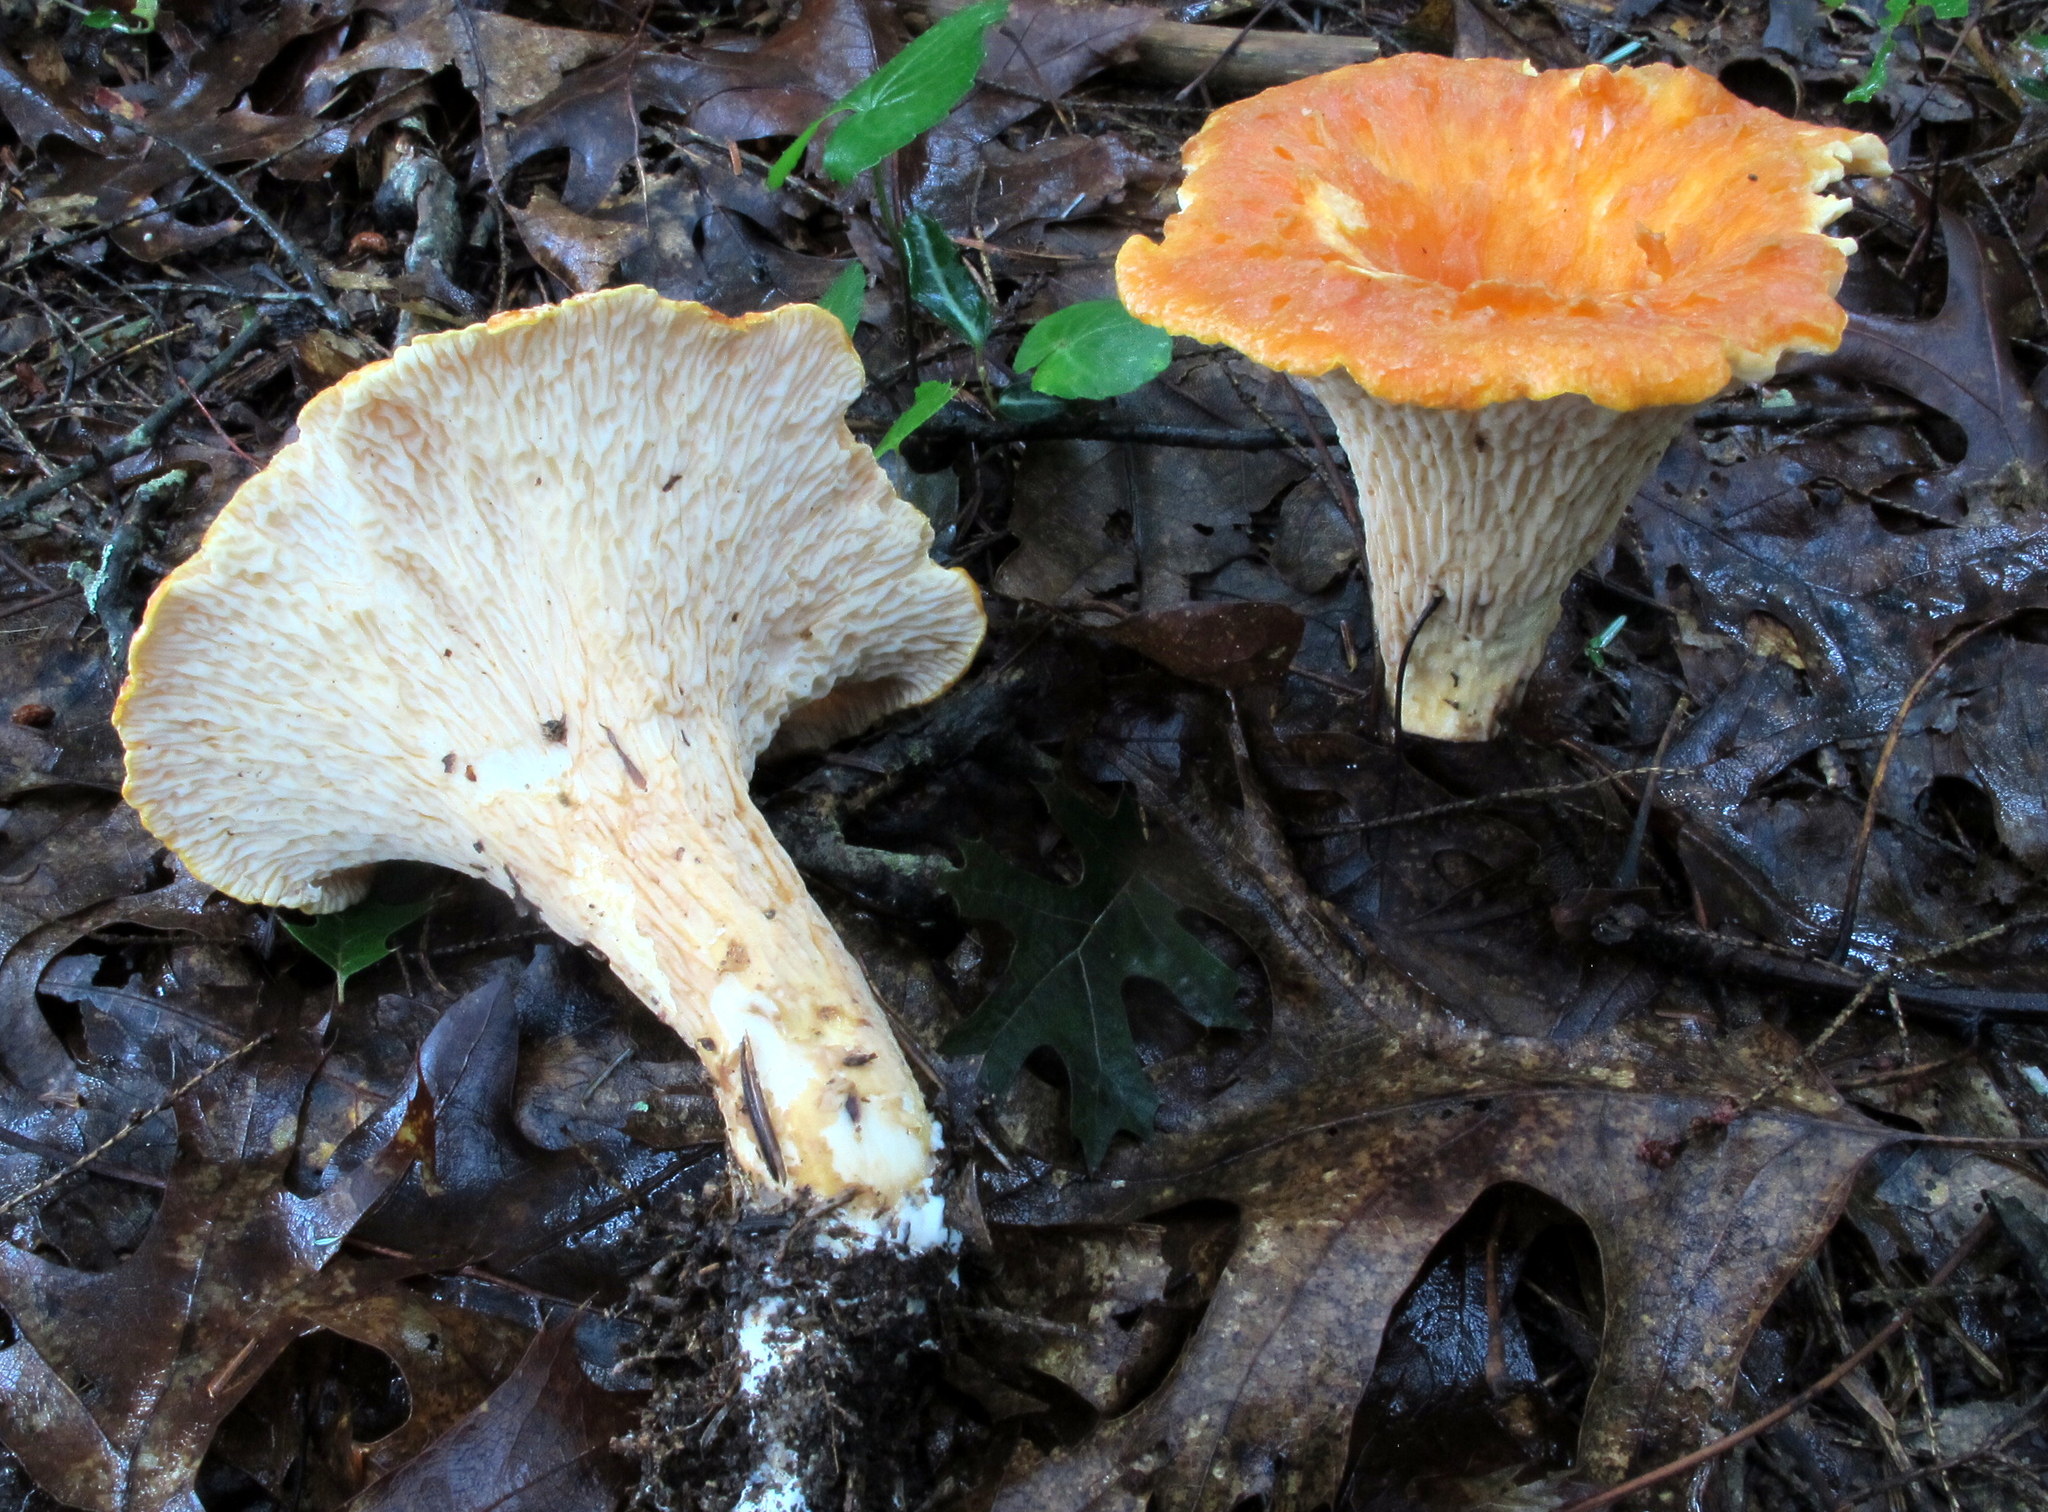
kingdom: Fungi
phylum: Basidiomycota
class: Agaricomycetes
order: Gomphales
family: Gomphaceae
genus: Turbinellus
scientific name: Turbinellus floccosus
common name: Scaly chanterelle
